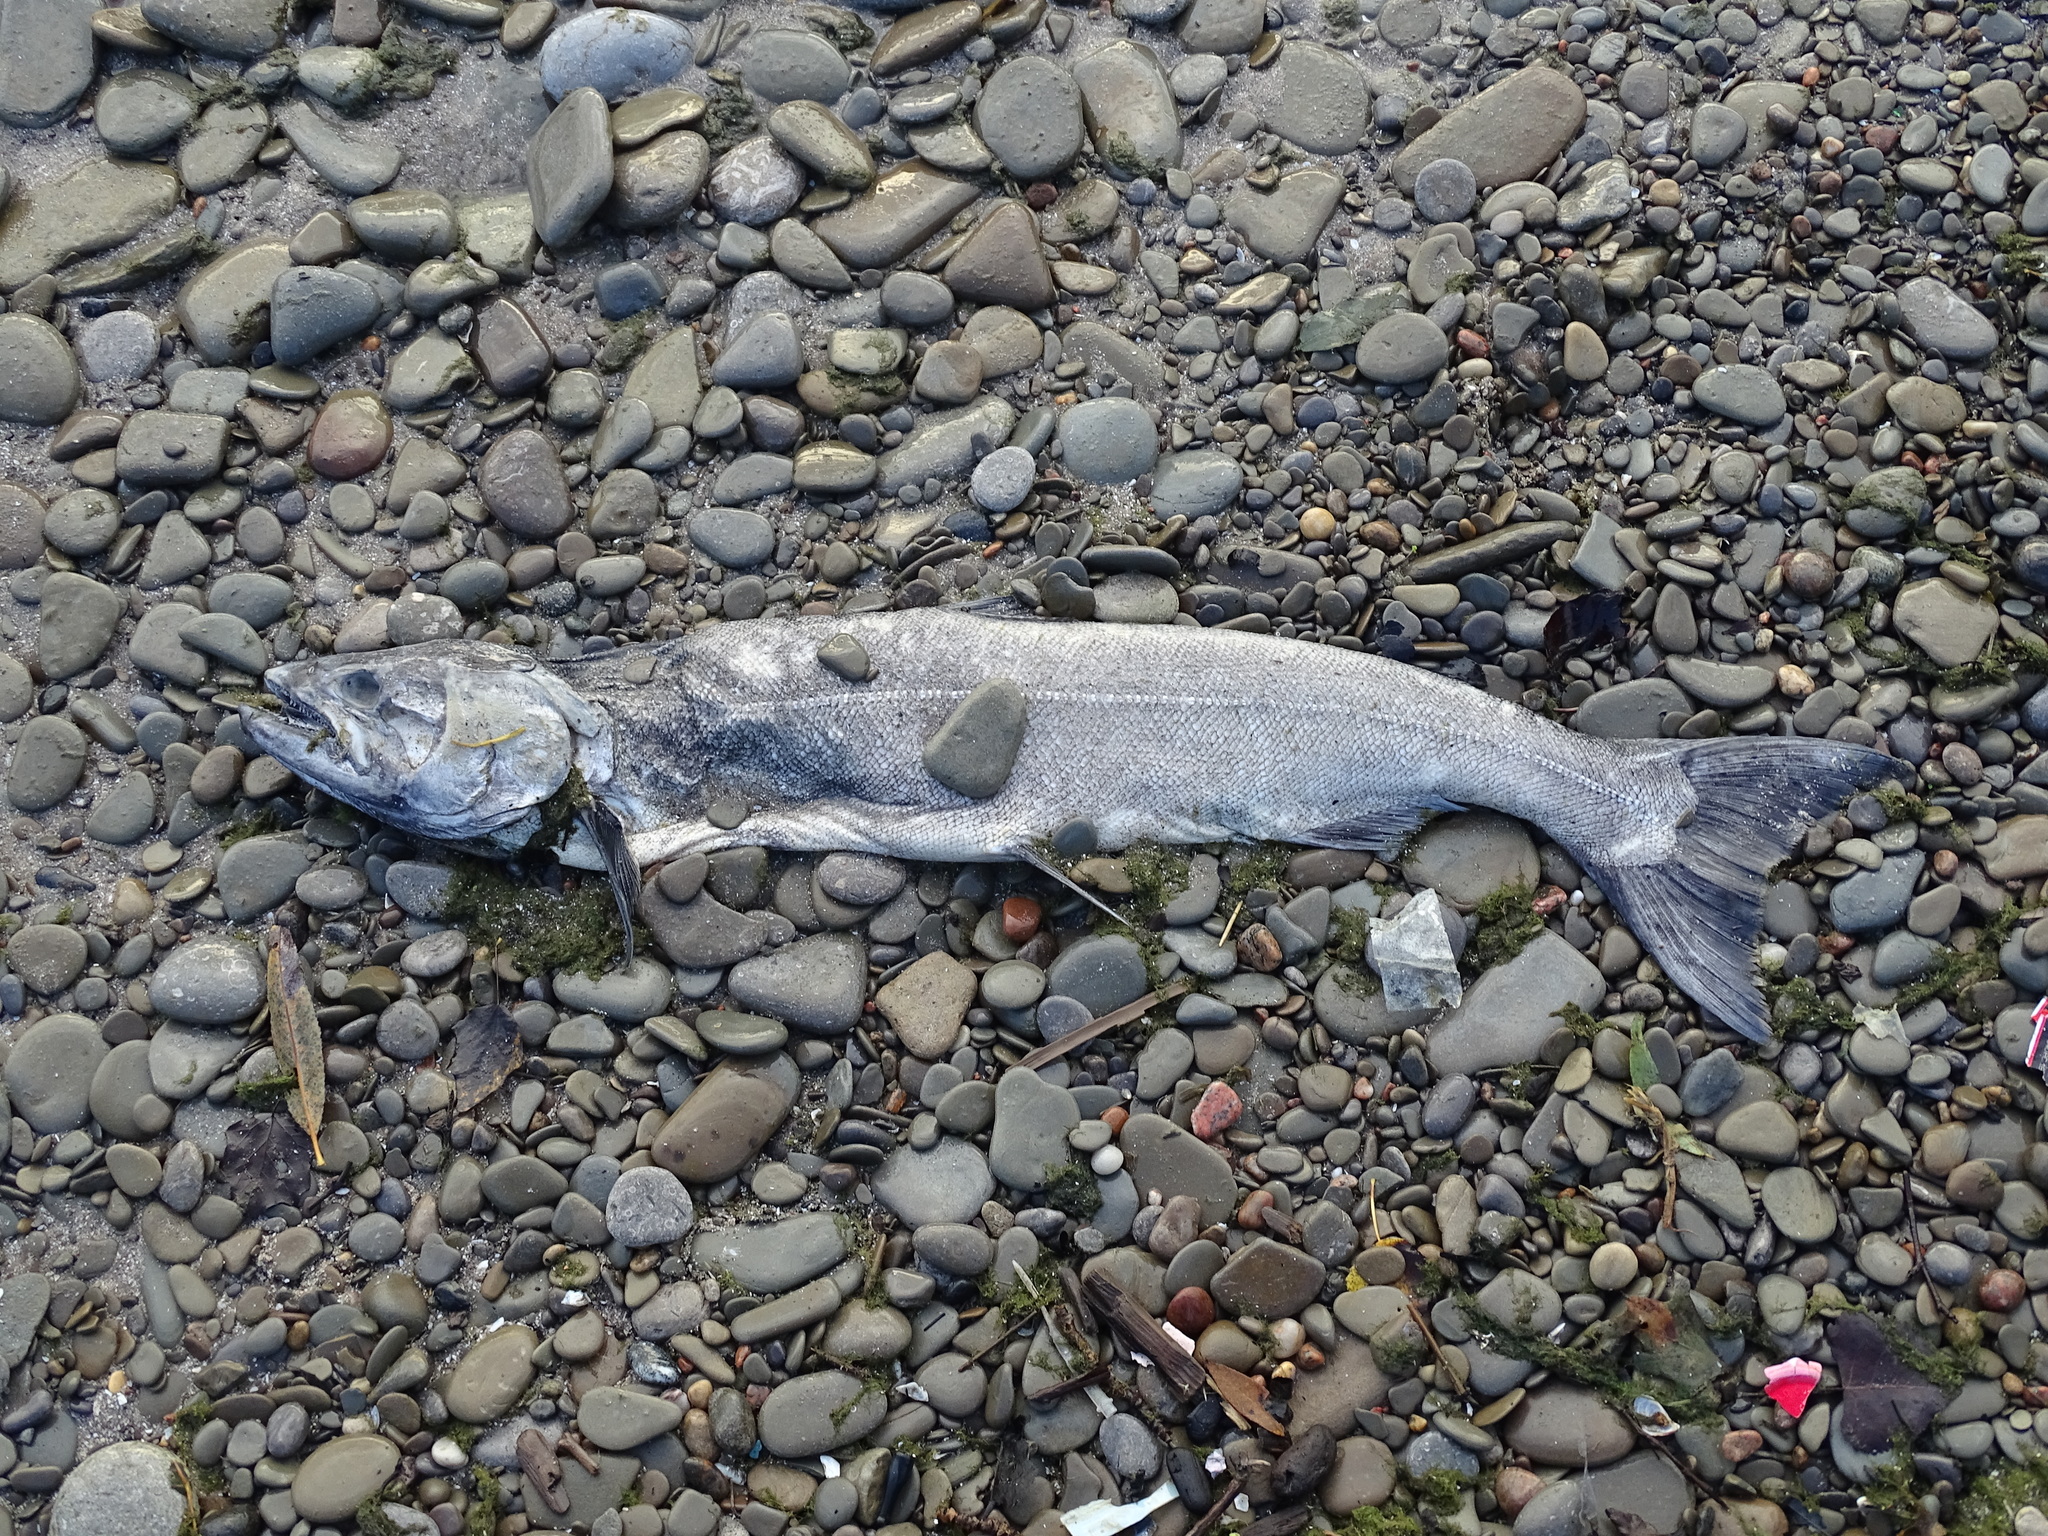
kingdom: Animalia
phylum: Chordata
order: Salmoniformes
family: Salmonidae
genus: Oncorhynchus
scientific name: Oncorhynchus tshawytscha
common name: Chinook salmon
